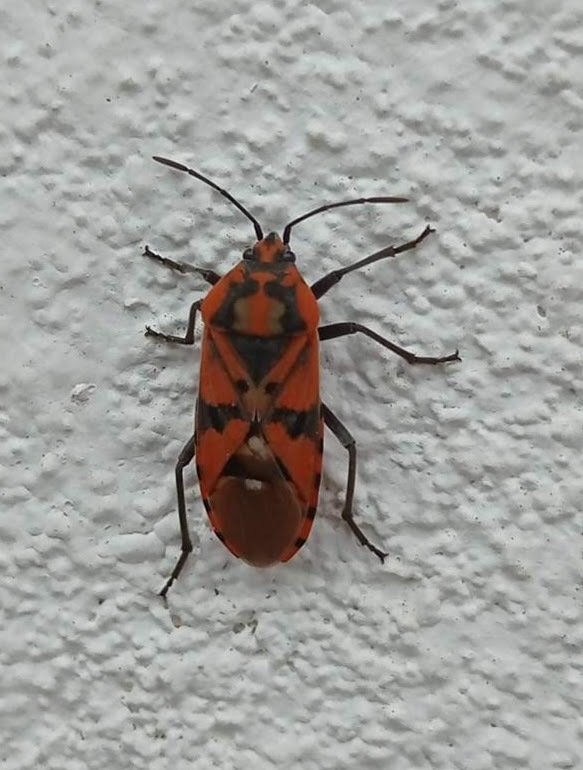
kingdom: Animalia
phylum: Arthropoda
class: Insecta
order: Hemiptera
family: Lygaeidae
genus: Spilostethus
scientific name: Spilostethus pandurus
